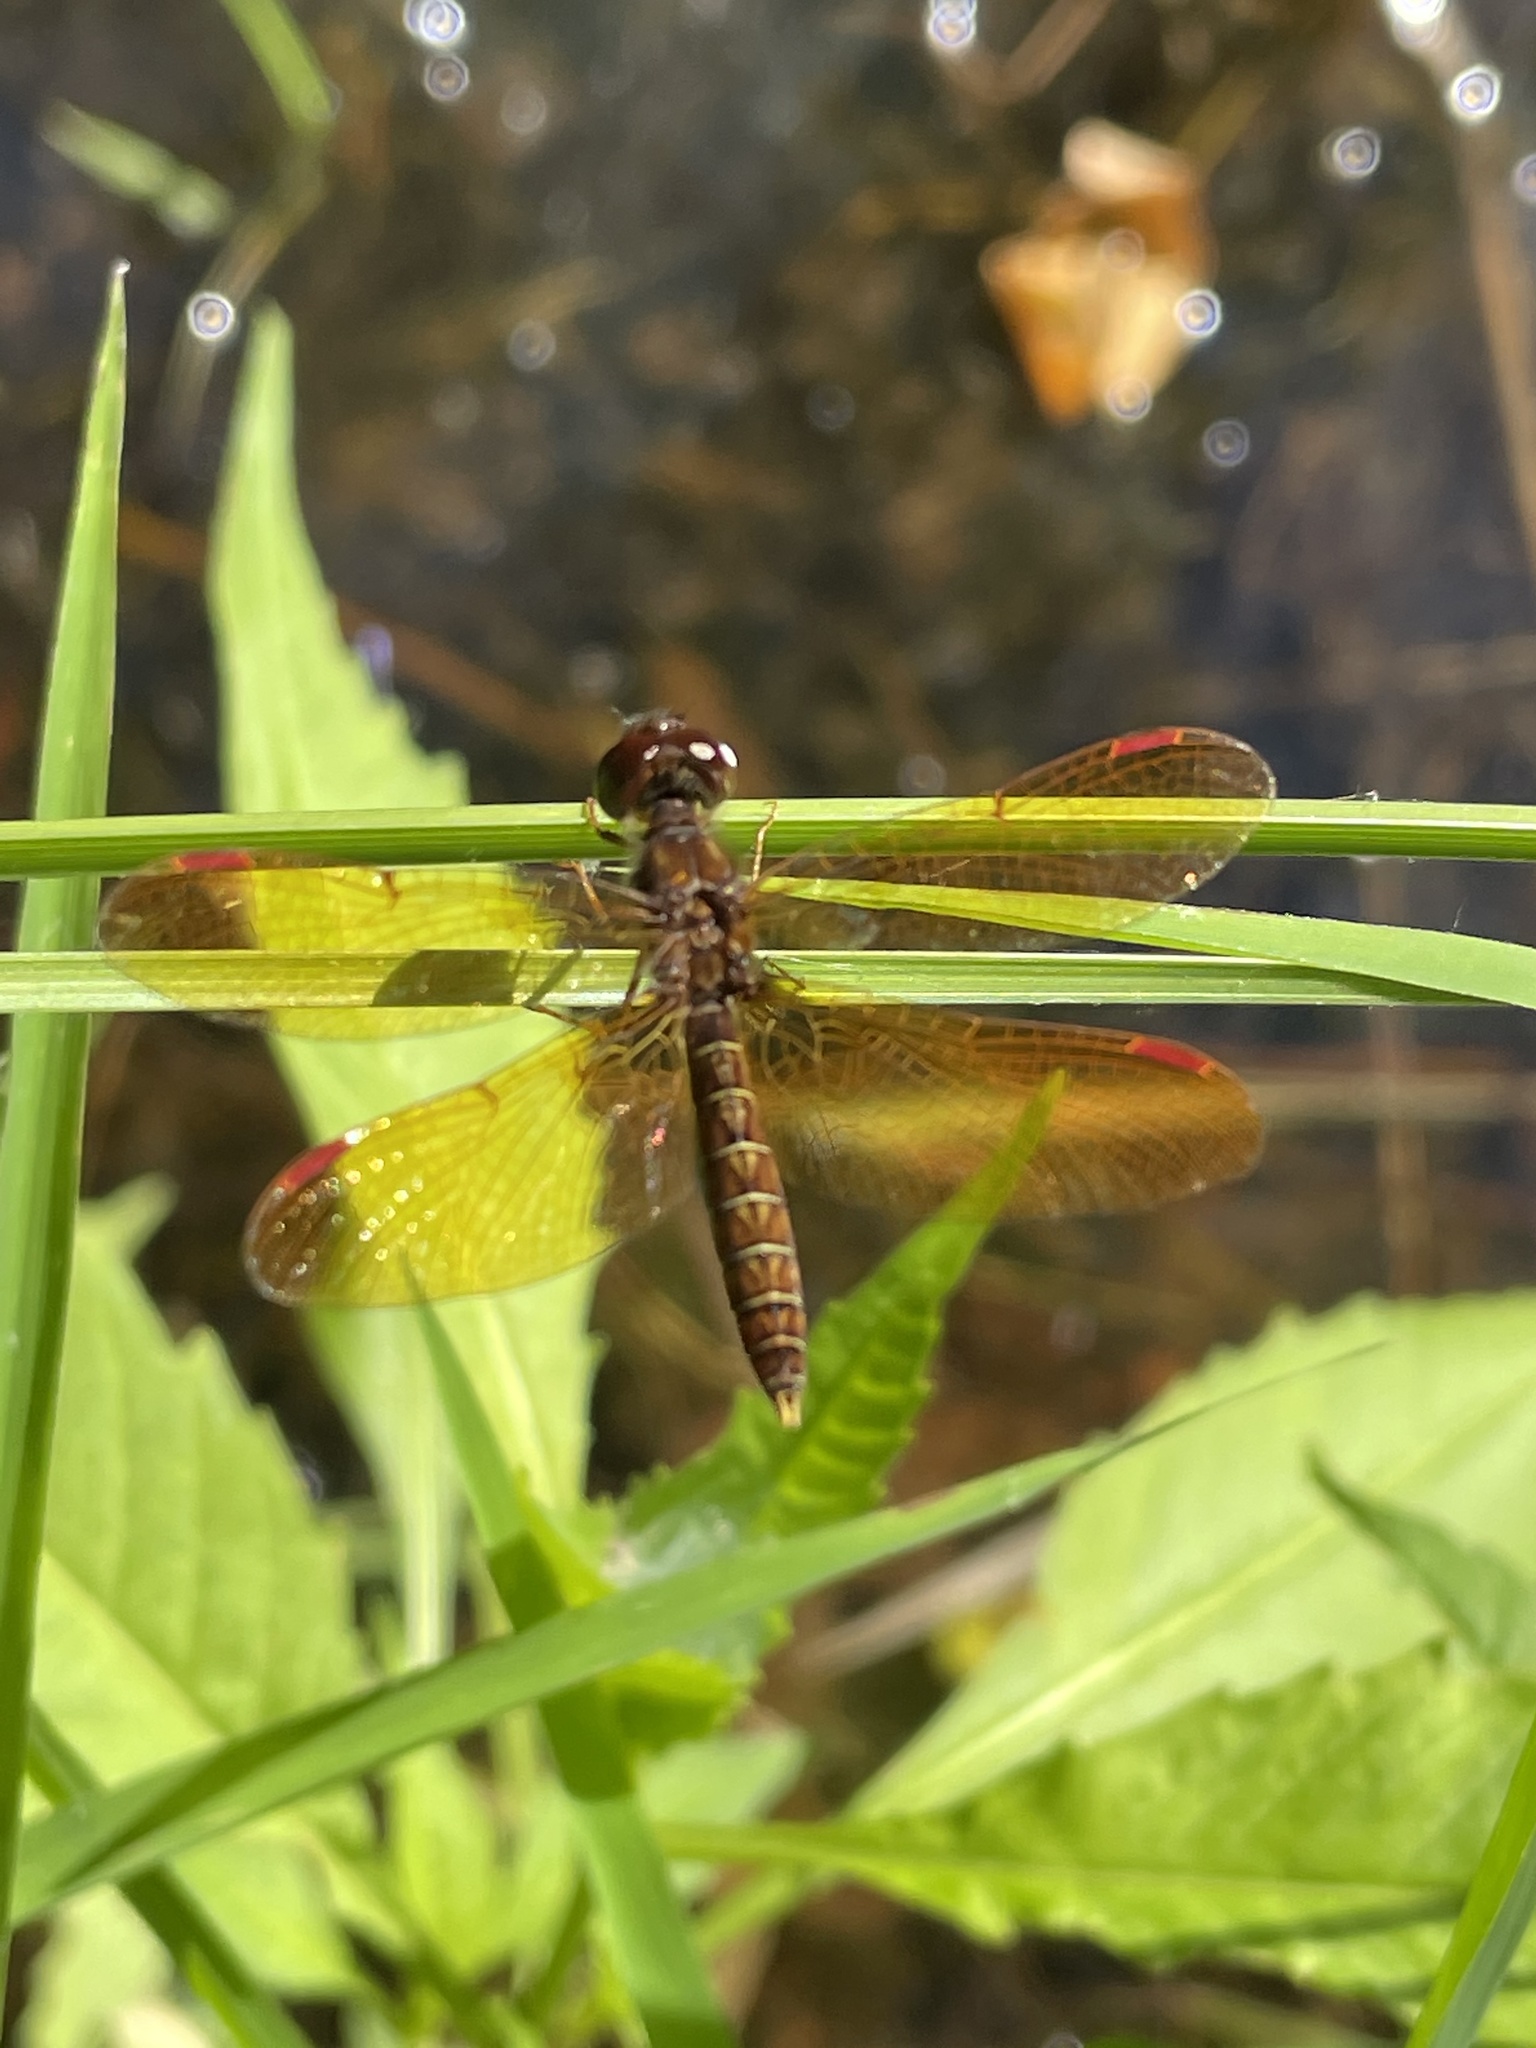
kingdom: Animalia
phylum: Arthropoda
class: Insecta
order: Odonata
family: Libellulidae
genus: Perithemis
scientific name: Perithemis tenera
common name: Eastern amberwing
